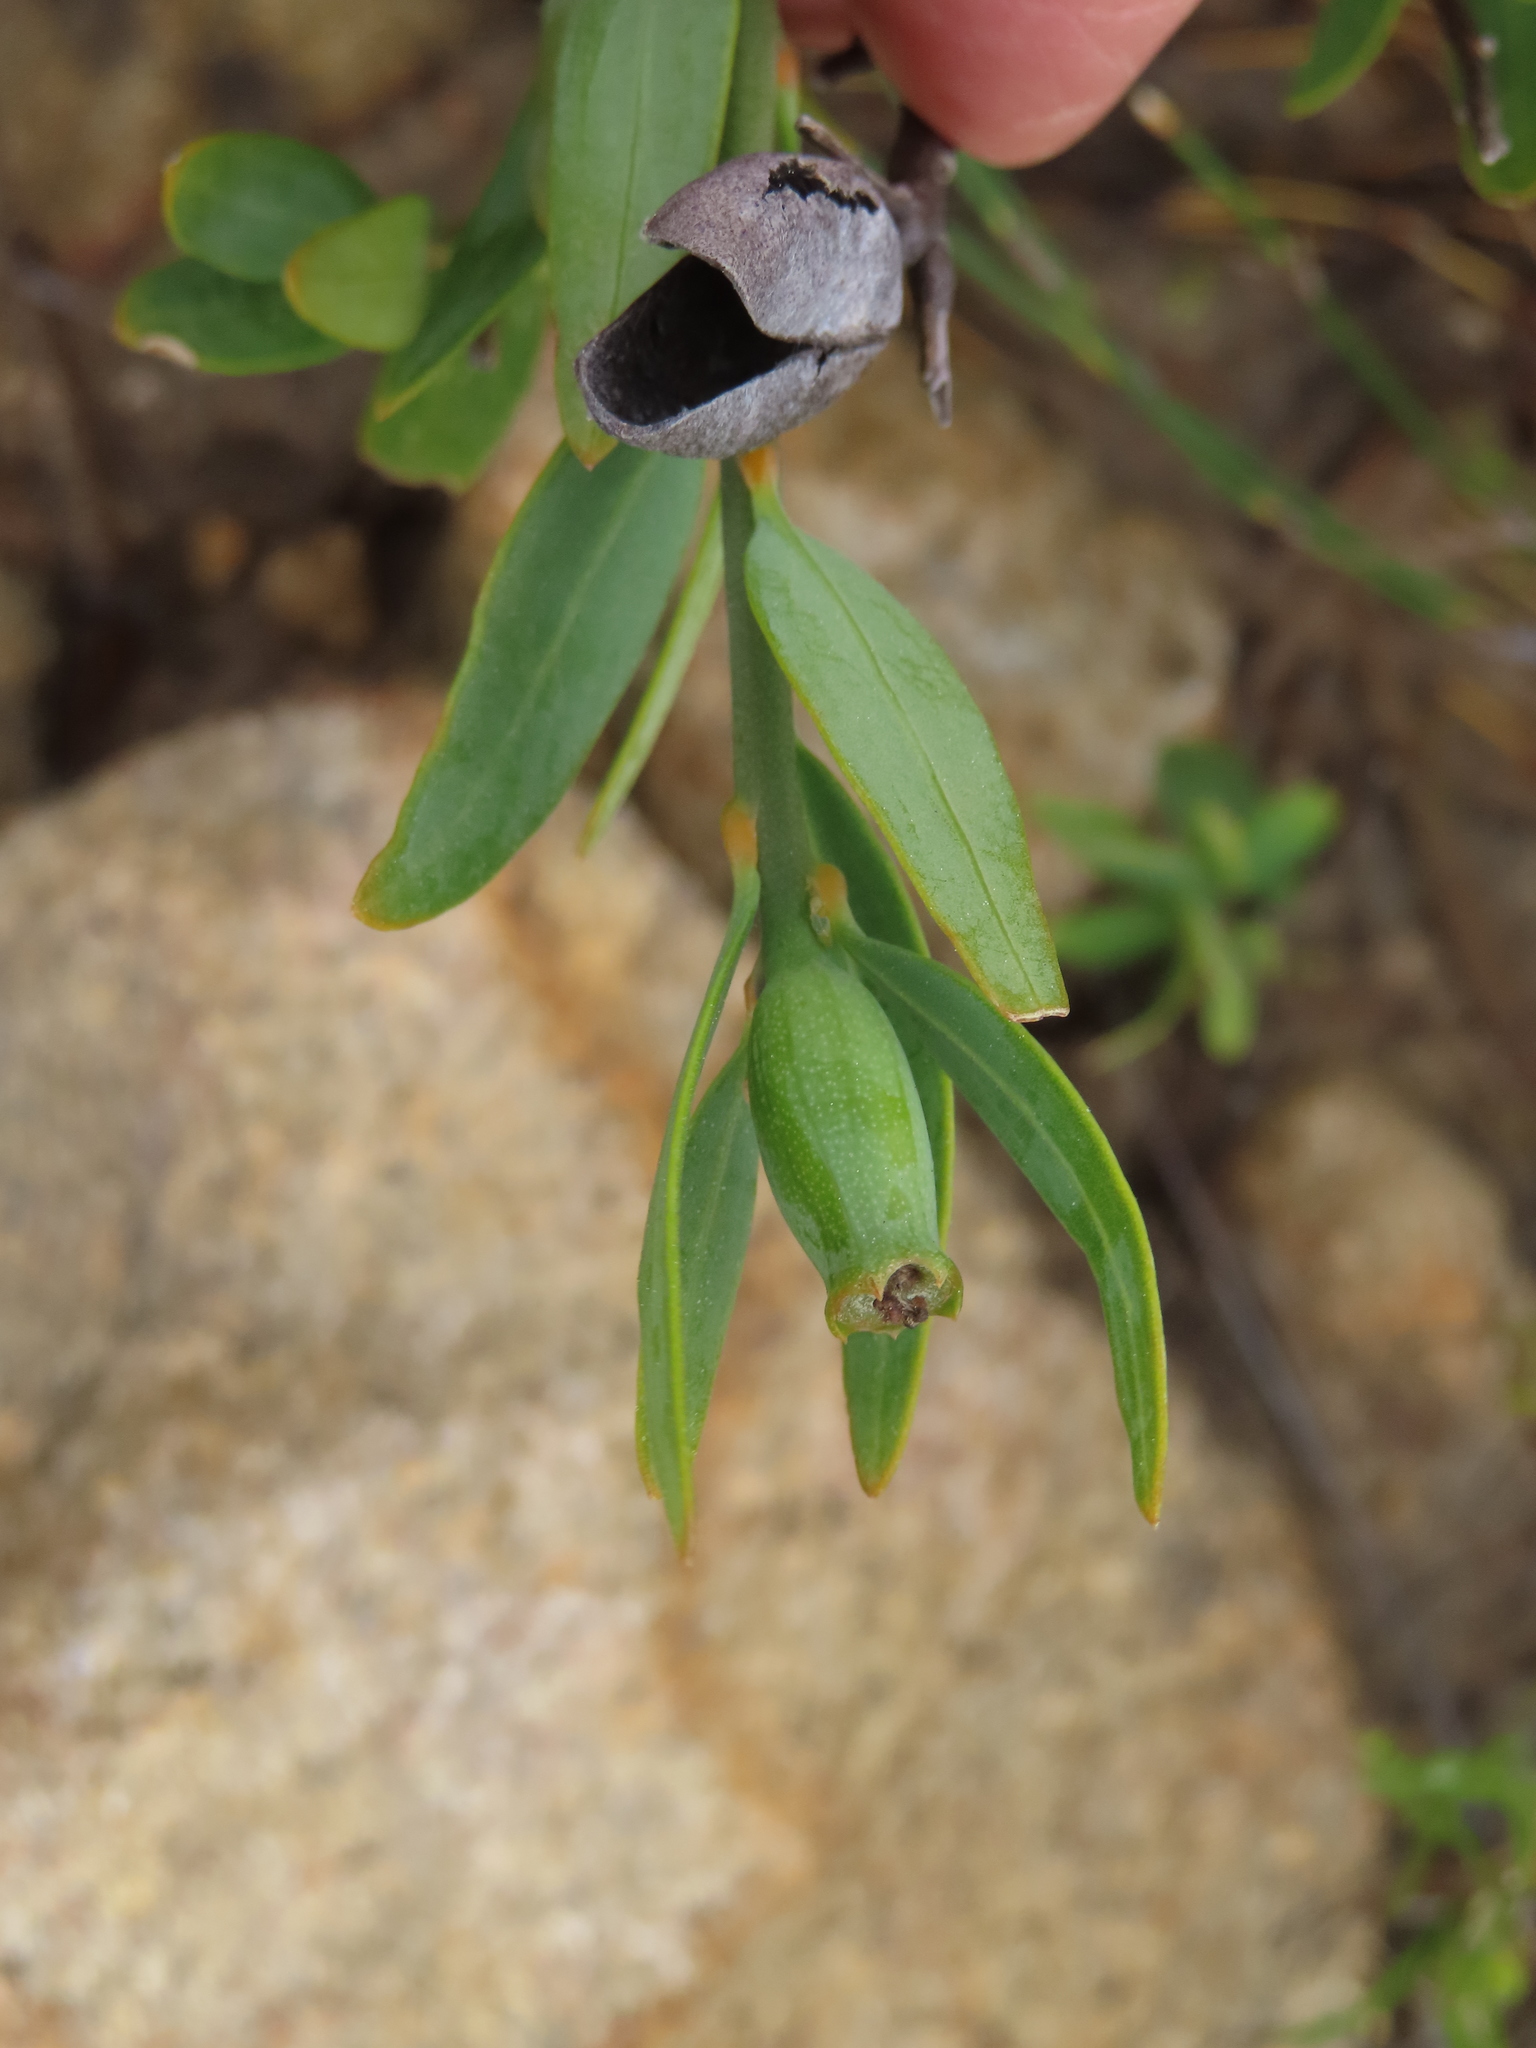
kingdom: Plantae
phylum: Tracheophyta
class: Magnoliopsida
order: Solanales
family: Montiniaceae
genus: Montinia
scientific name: Montinia caryophyllacea
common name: Wild clove-bush
